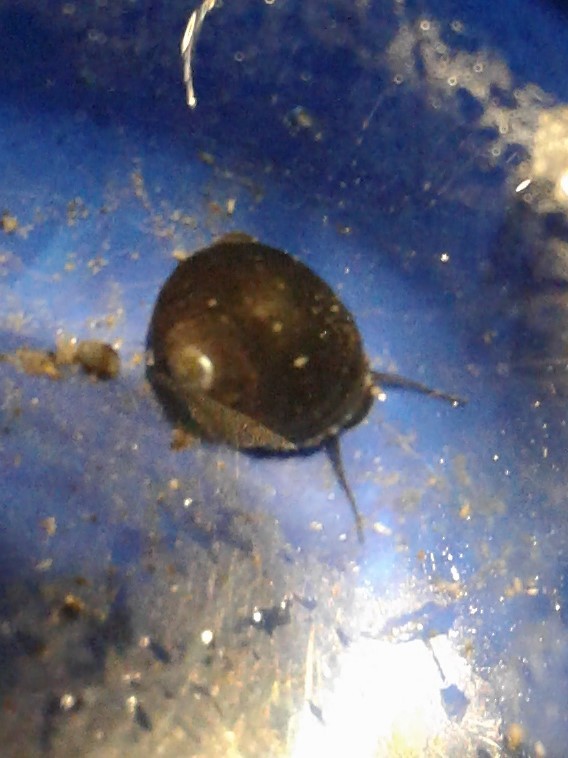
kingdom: Animalia
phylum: Mollusca
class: Gastropoda
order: Trochida
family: Trochidae
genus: Diloma
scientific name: Diloma zelandicum
